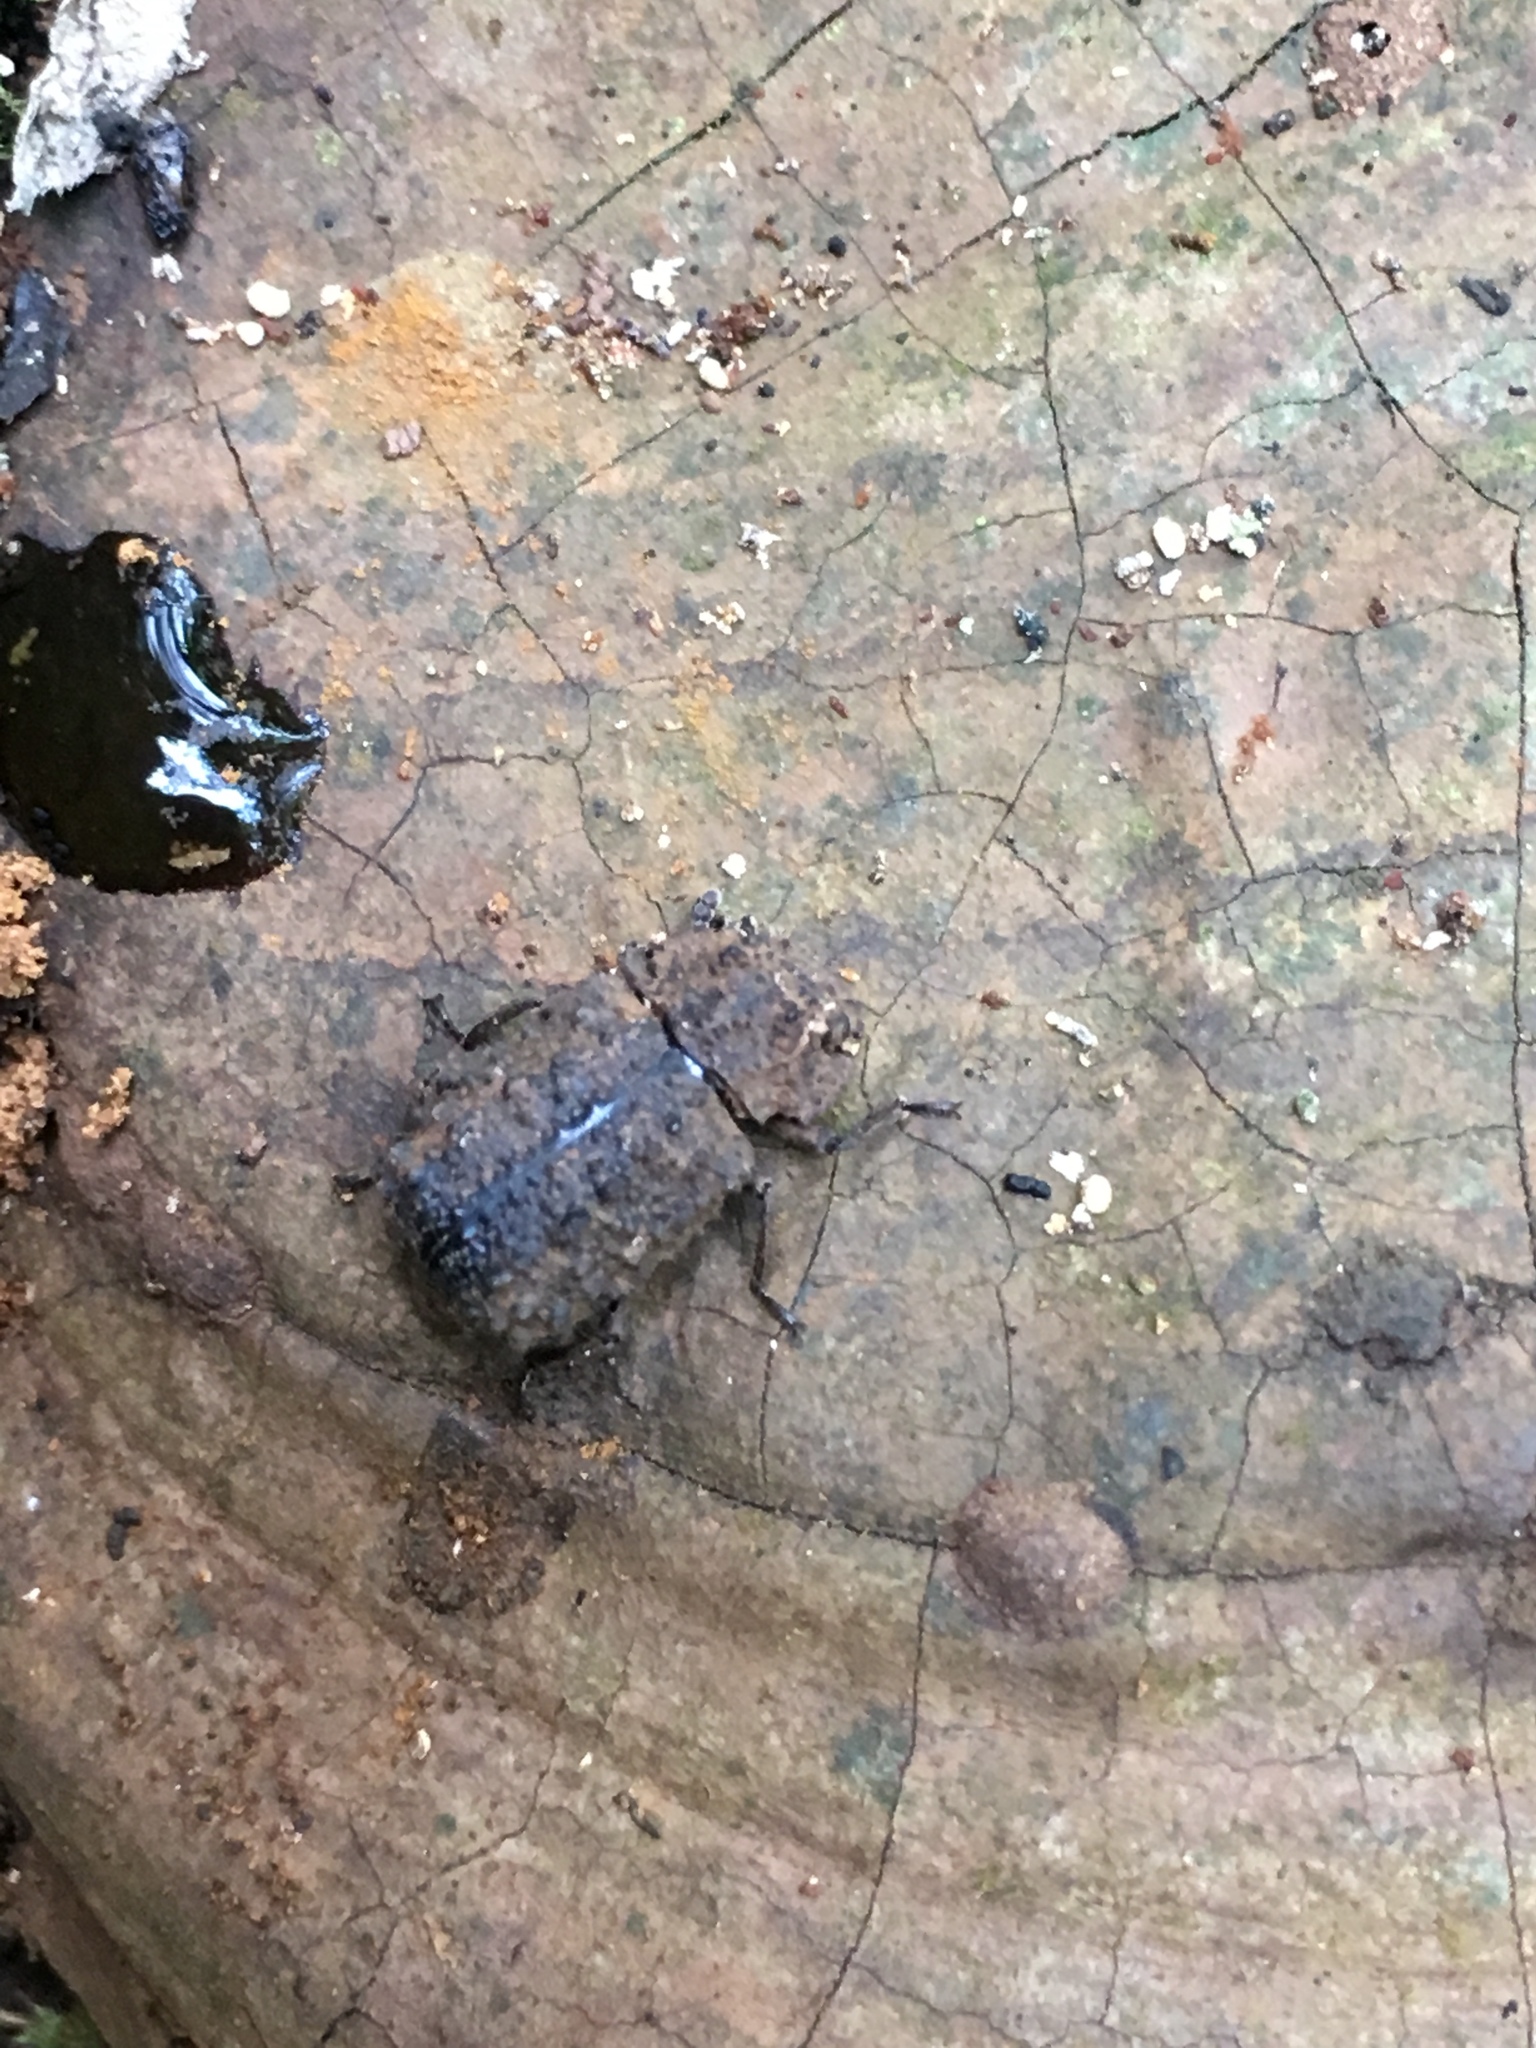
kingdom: Animalia
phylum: Arthropoda
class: Insecta
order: Coleoptera
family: Tenebrionidae
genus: Gnatocerus
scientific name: Gnatocerus cornutus
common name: Broad-horned flour beetle
